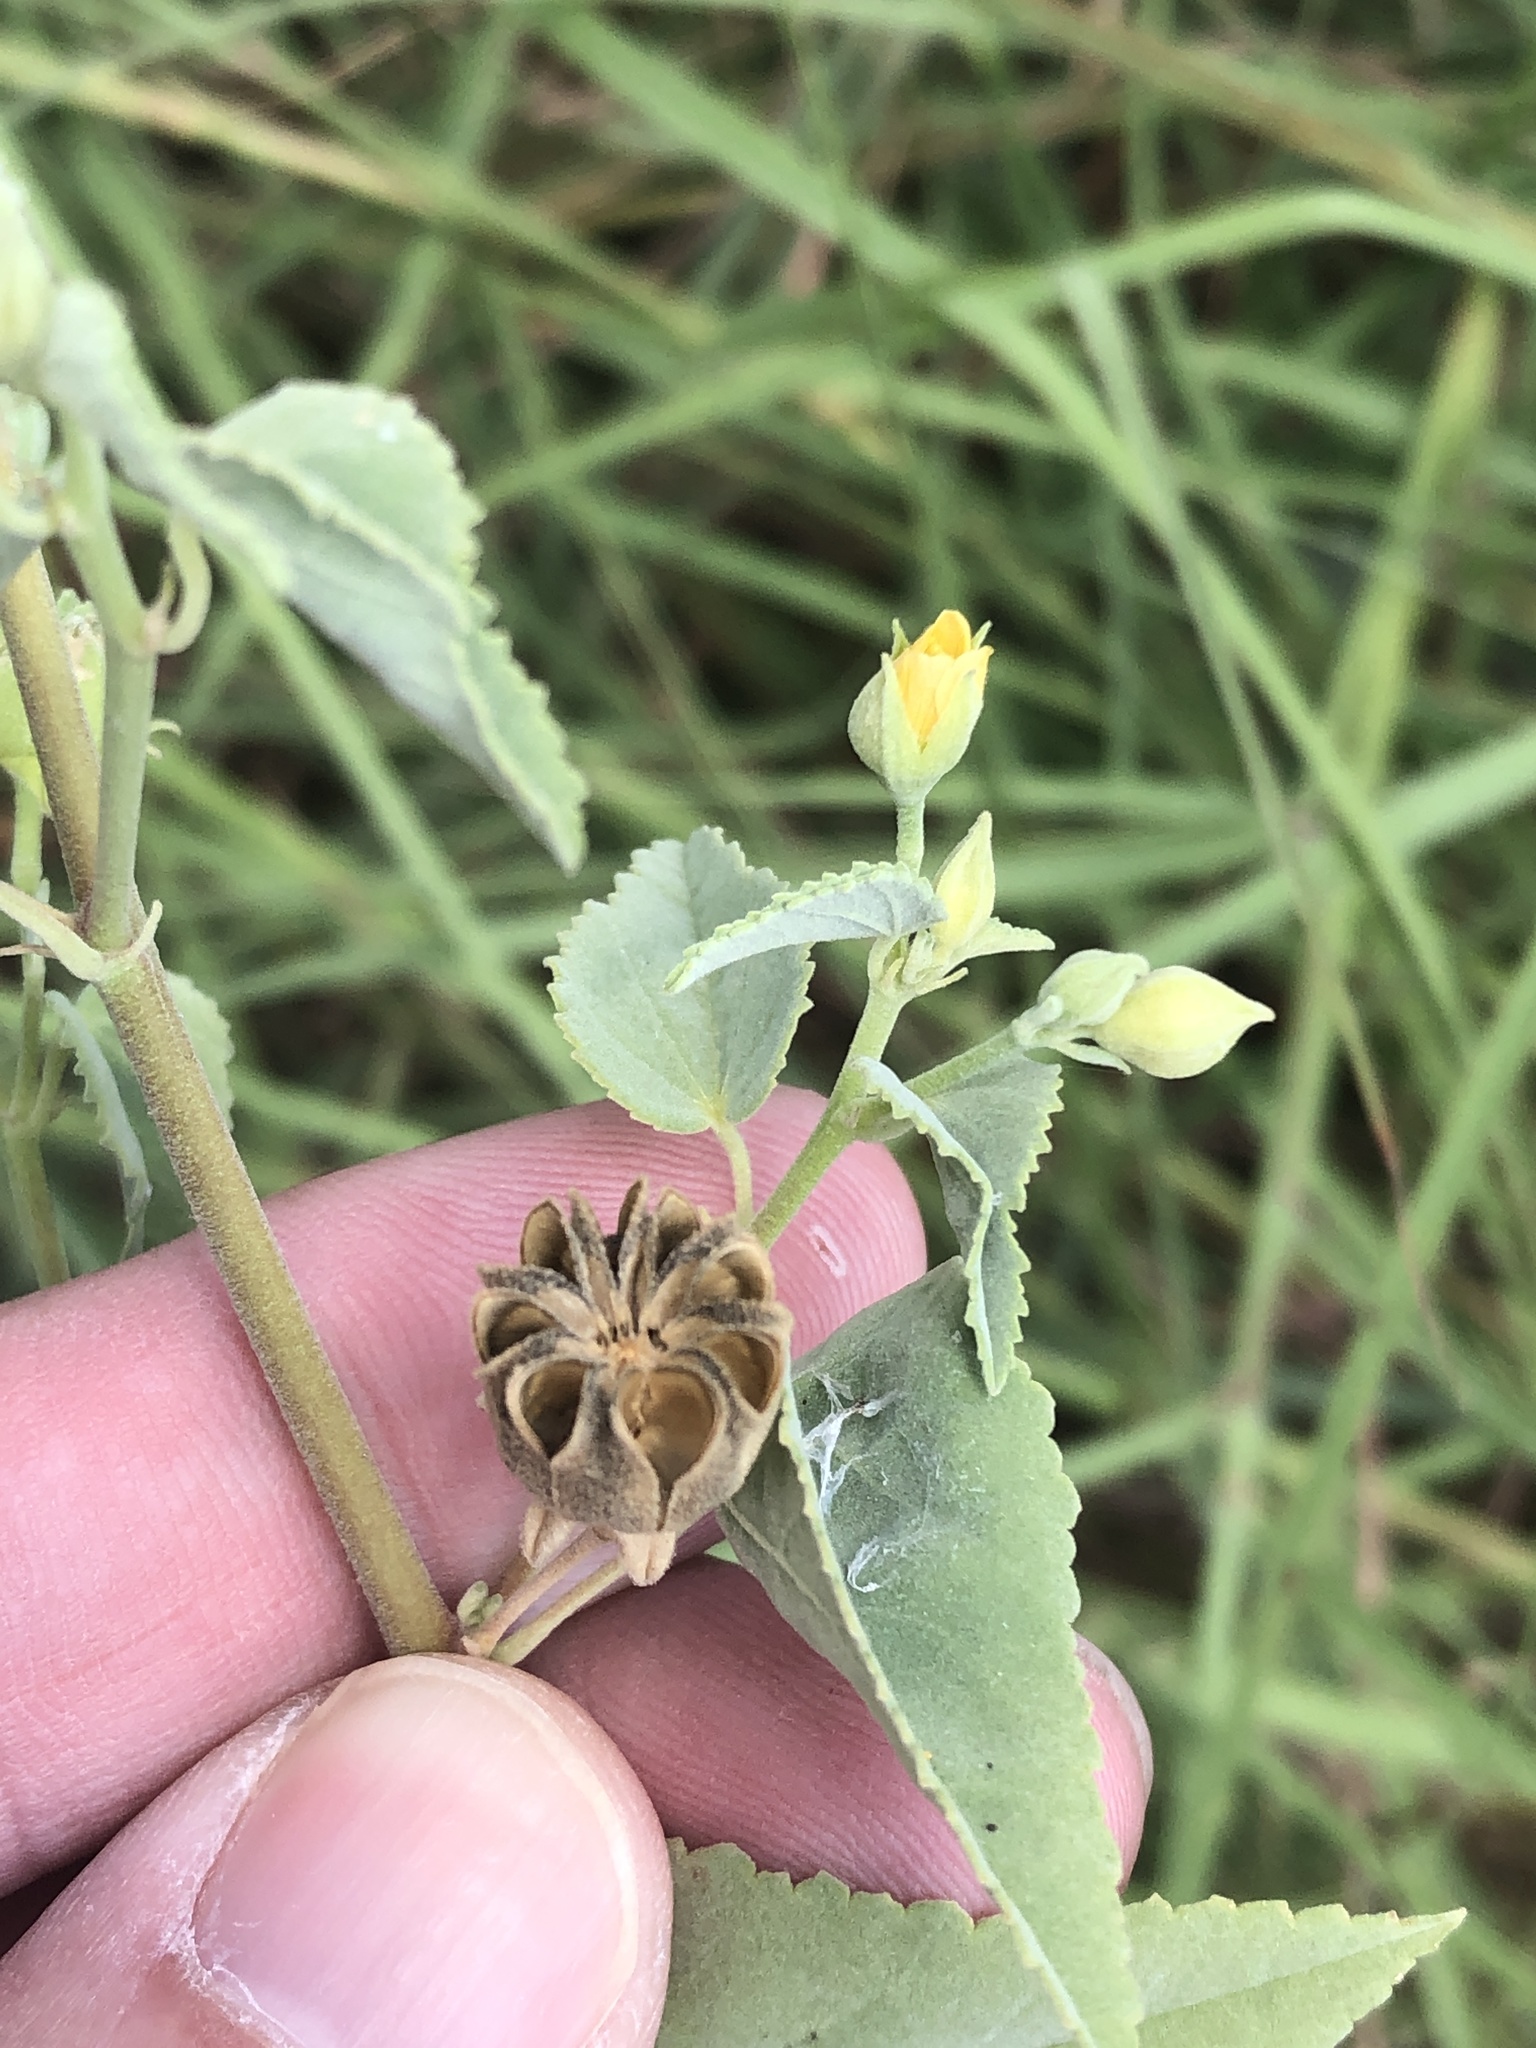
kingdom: Plantae
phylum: Tracheophyta
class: Magnoliopsida
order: Malvales
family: Malvaceae
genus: Abutilon
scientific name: Abutilon fruticosum
